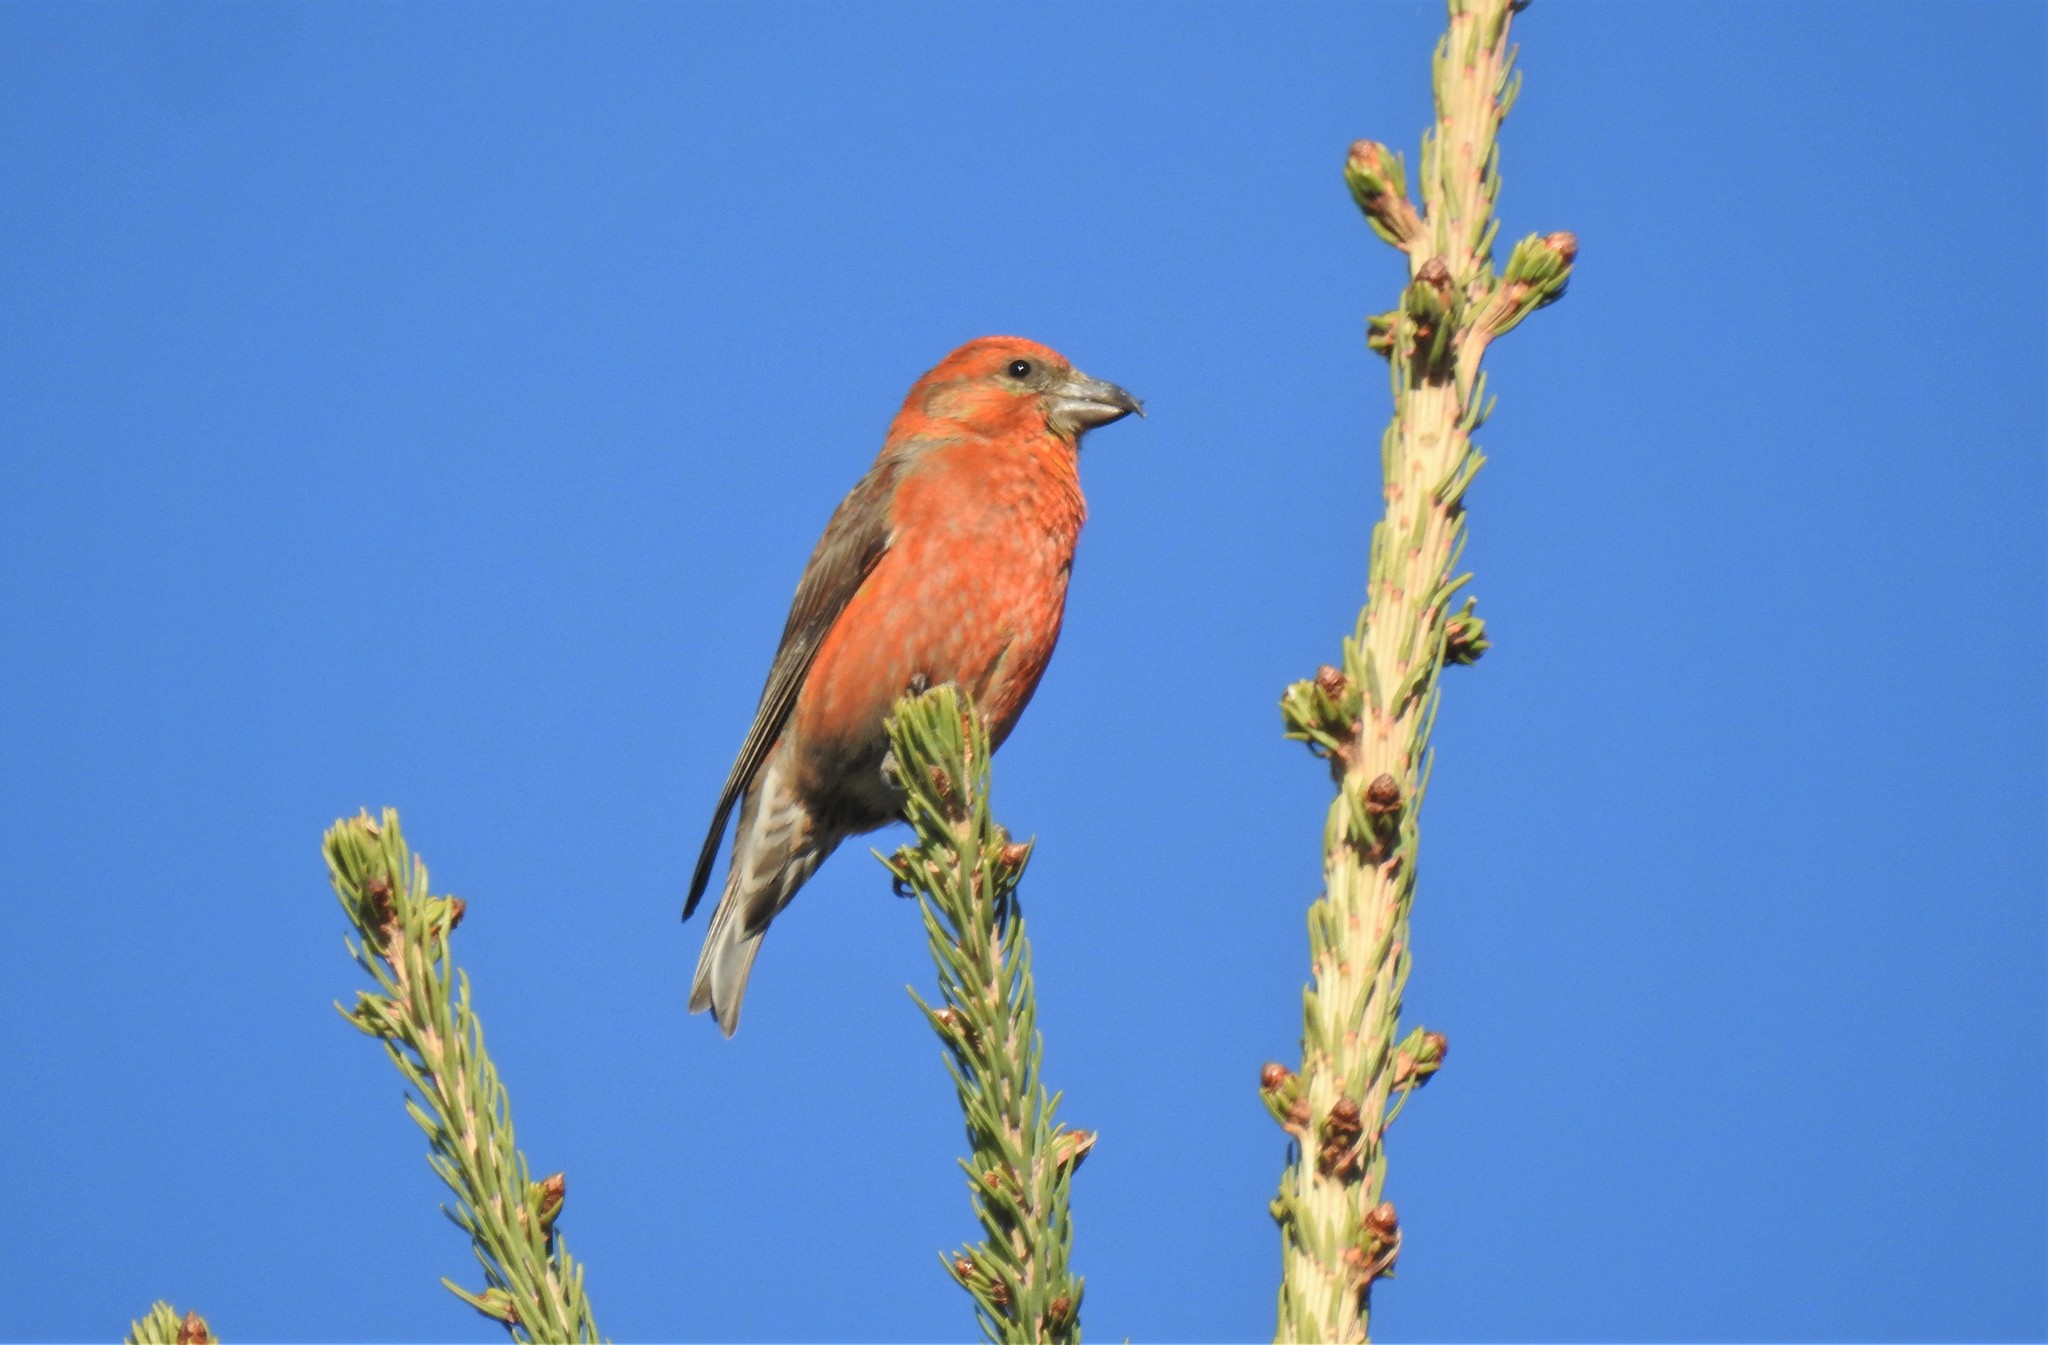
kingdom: Animalia
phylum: Chordata
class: Aves
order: Passeriformes
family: Fringillidae
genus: Loxia
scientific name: Loxia curvirostra
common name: Red crossbill
